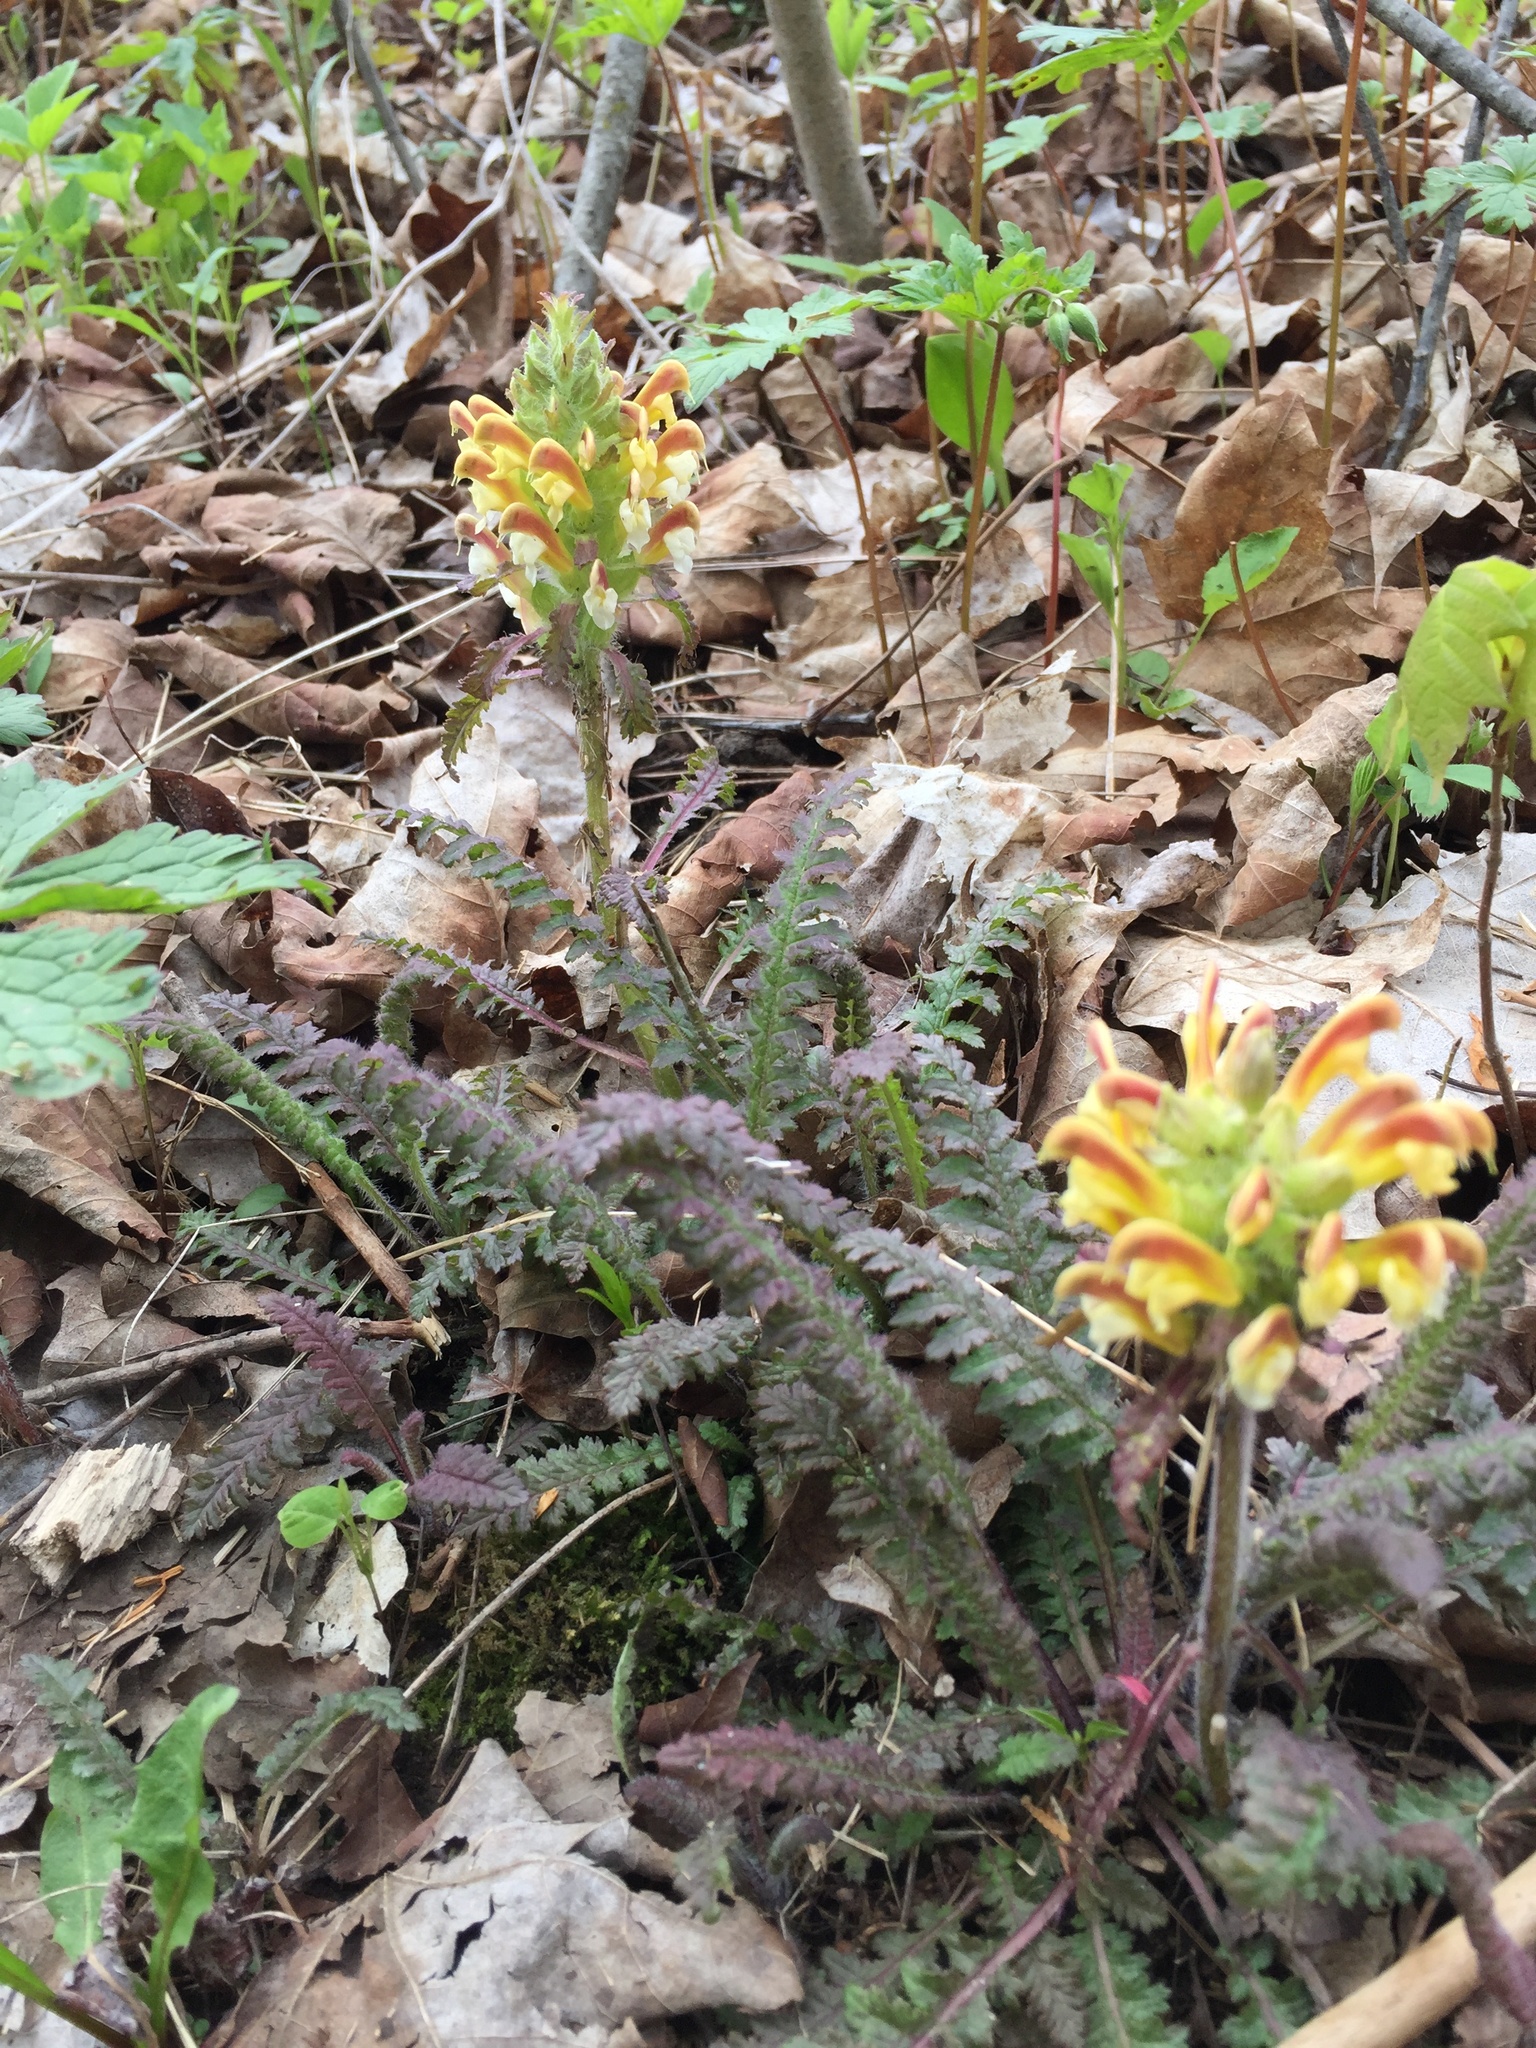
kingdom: Plantae
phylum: Tracheophyta
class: Magnoliopsida
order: Lamiales
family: Orobanchaceae
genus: Pedicularis
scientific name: Pedicularis canadensis
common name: Early lousewort
